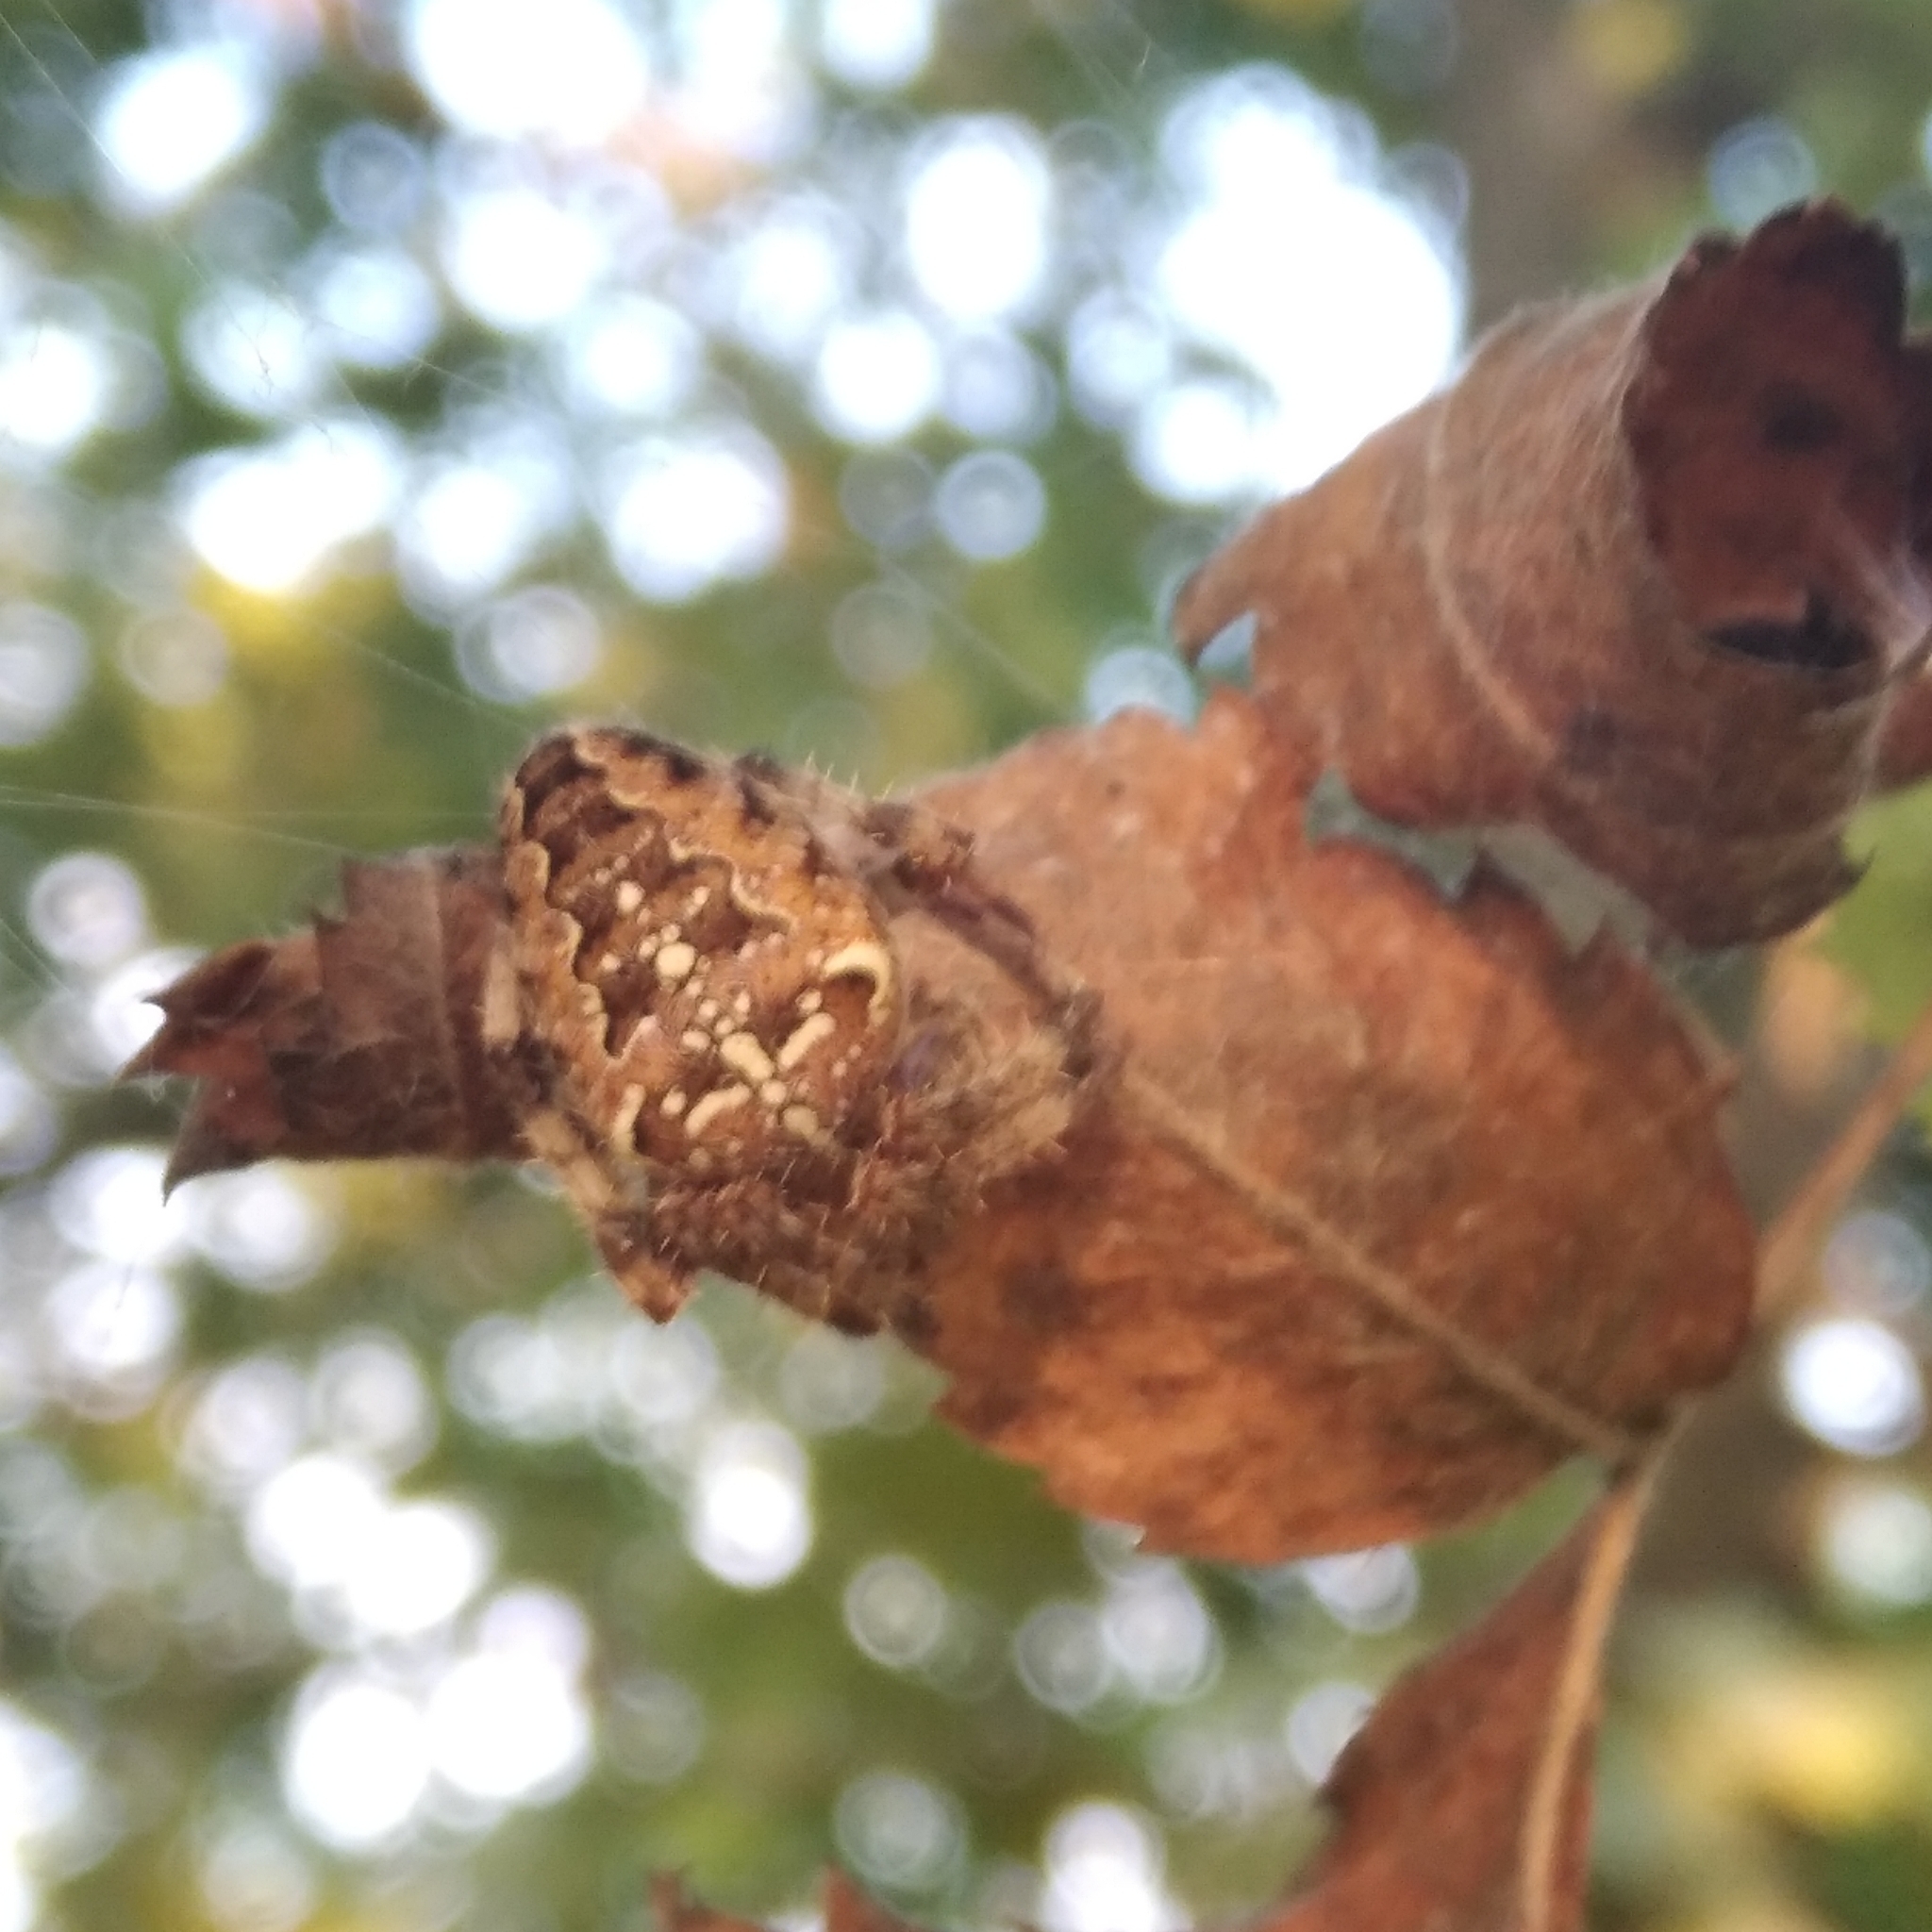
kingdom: Animalia
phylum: Arthropoda
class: Arachnida
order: Araneae
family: Araneidae
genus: Araneus
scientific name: Araneus diadematus
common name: Cross orbweaver
